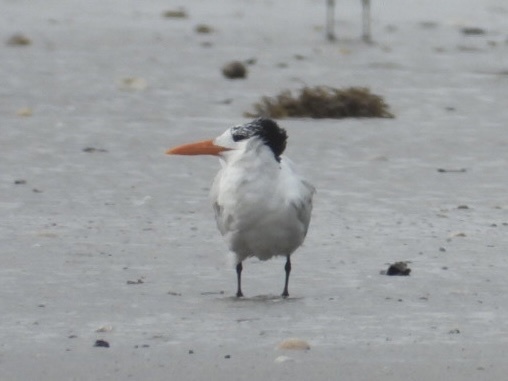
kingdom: Animalia
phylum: Chordata
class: Aves
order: Charadriiformes
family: Laridae
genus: Thalasseus
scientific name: Thalasseus maximus
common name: Royal tern
